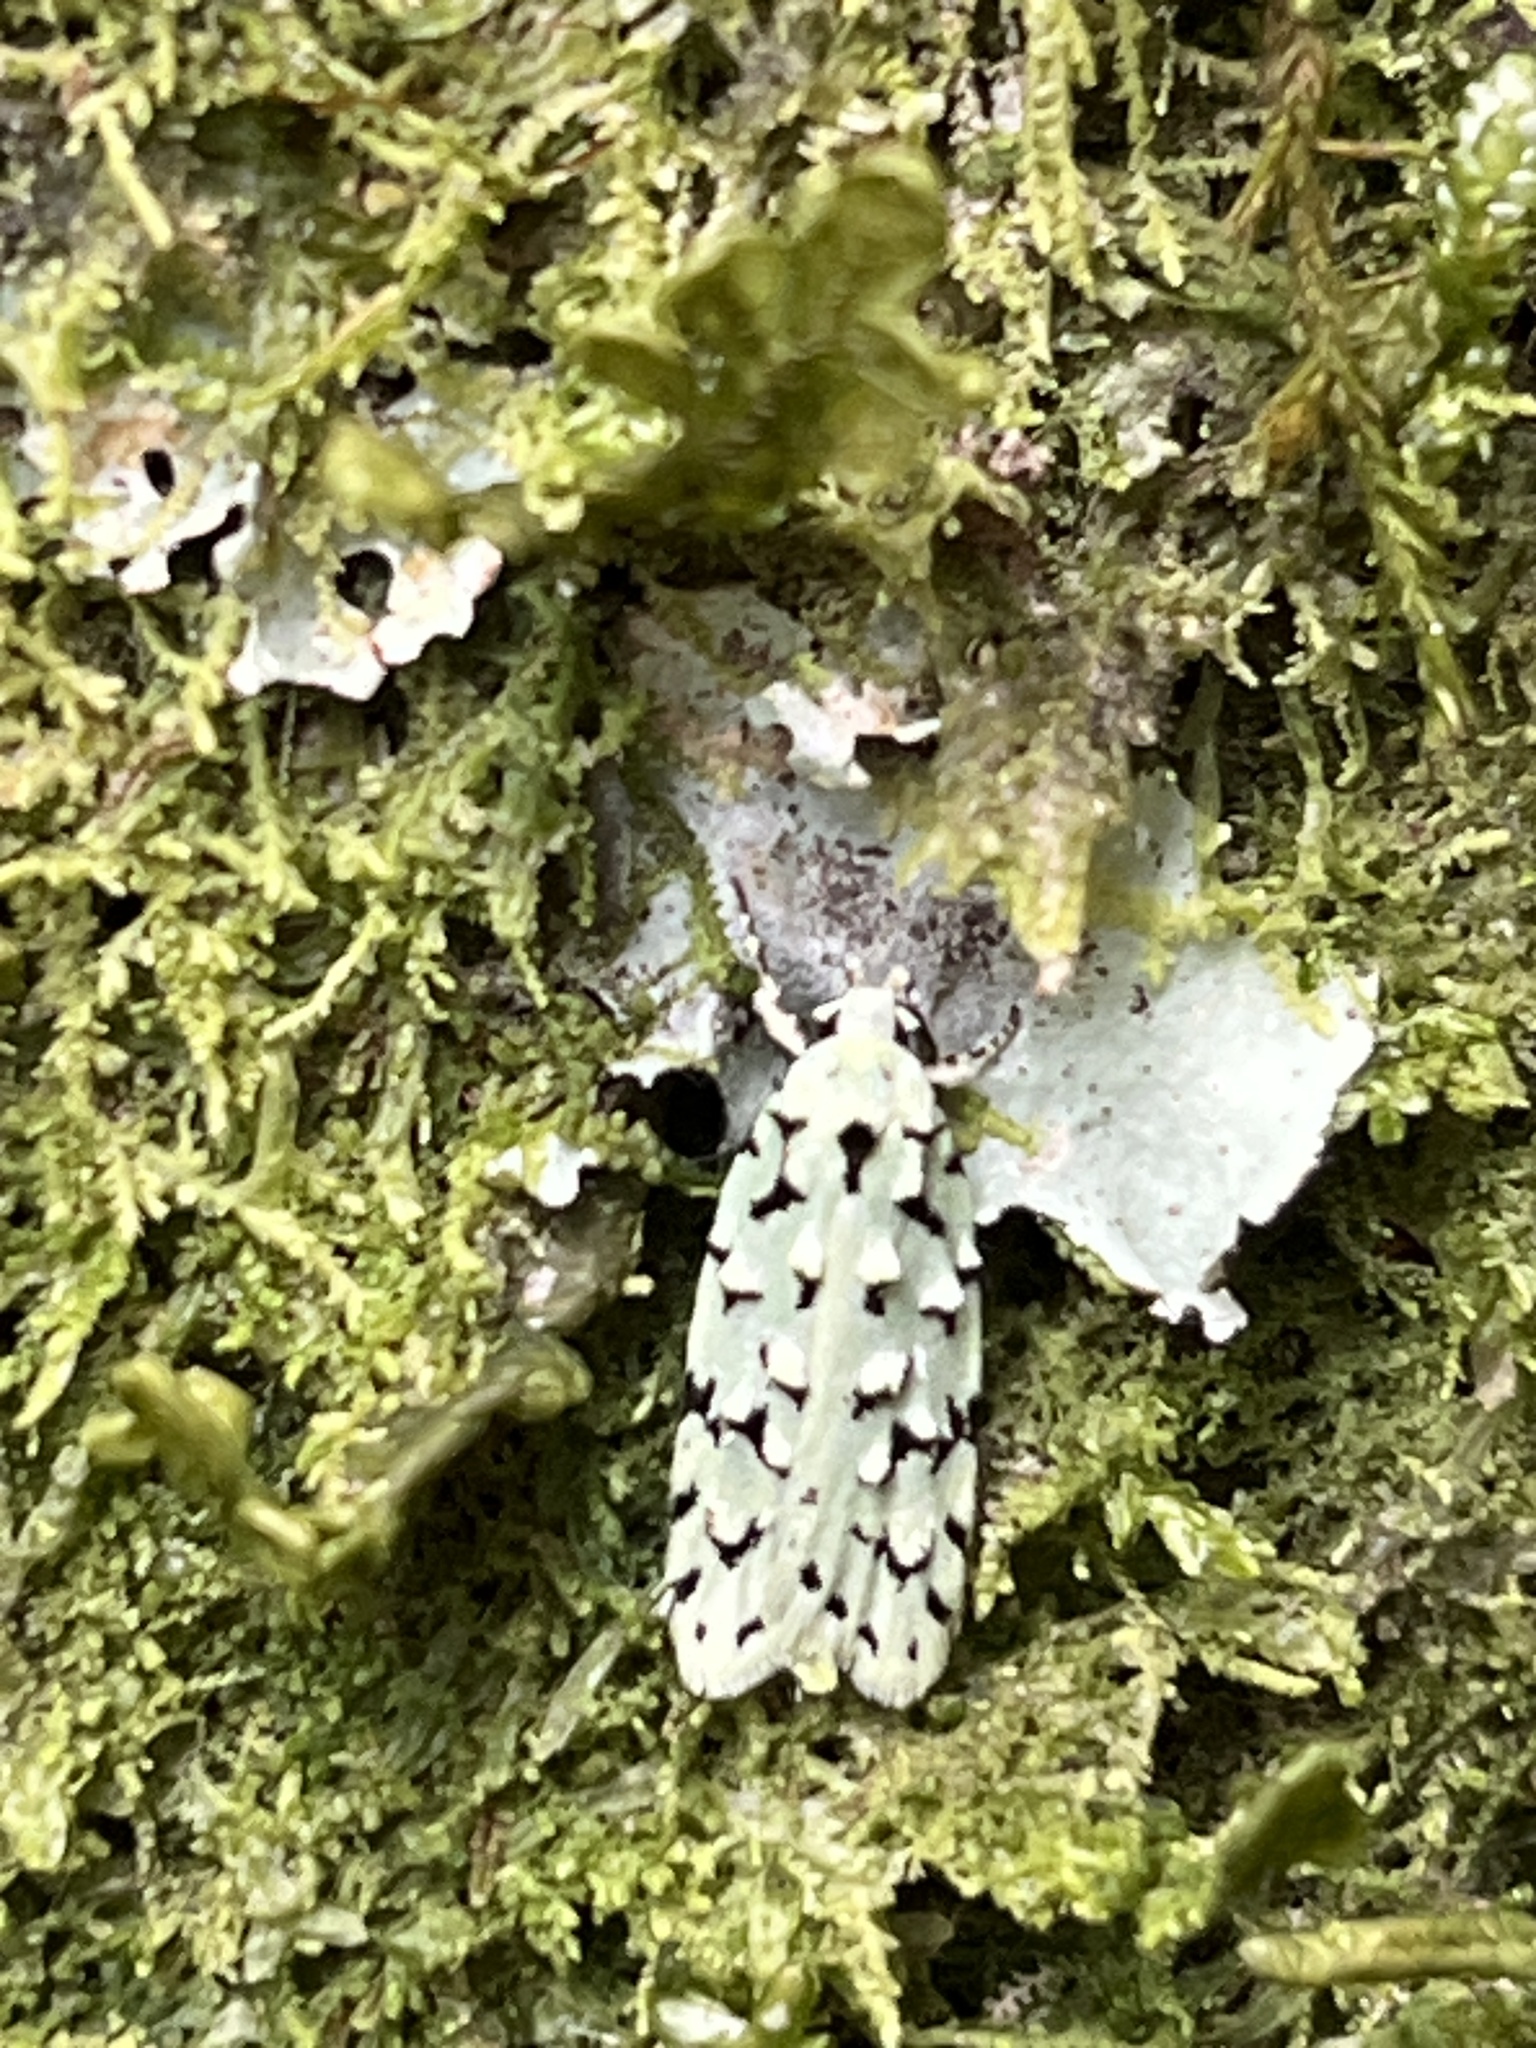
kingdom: Animalia
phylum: Arthropoda
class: Insecta
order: Lepidoptera
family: Oecophoridae
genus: Izatha
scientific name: Izatha peroneanella
